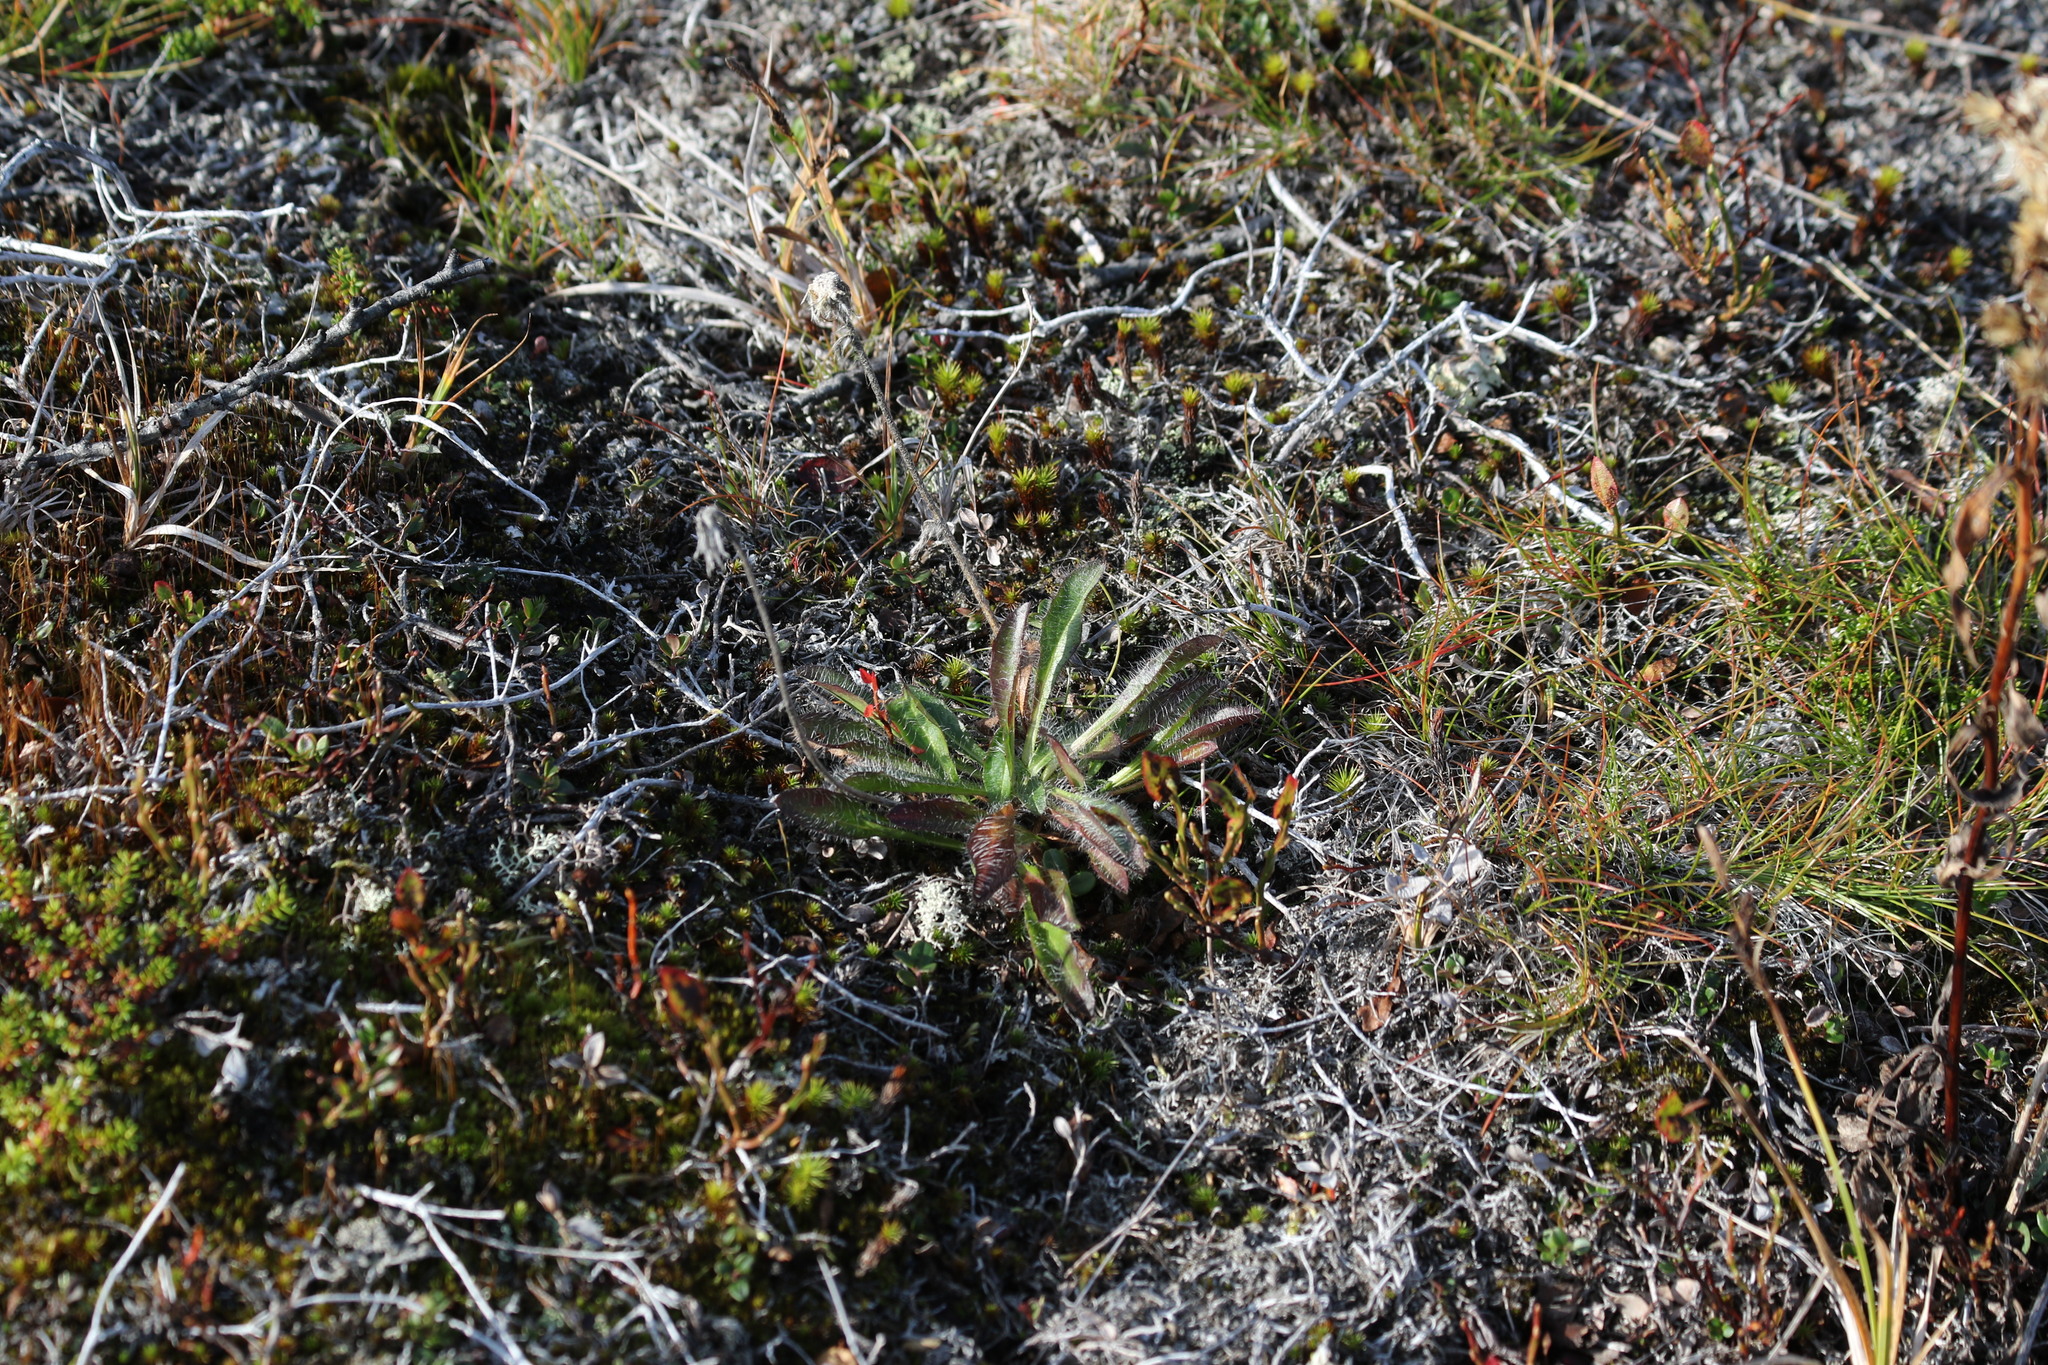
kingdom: Plantae
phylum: Tracheophyta
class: Magnoliopsida
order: Asterales
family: Asteraceae
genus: Hieracium
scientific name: Hieracium alpinum
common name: Alpine hawkweed
